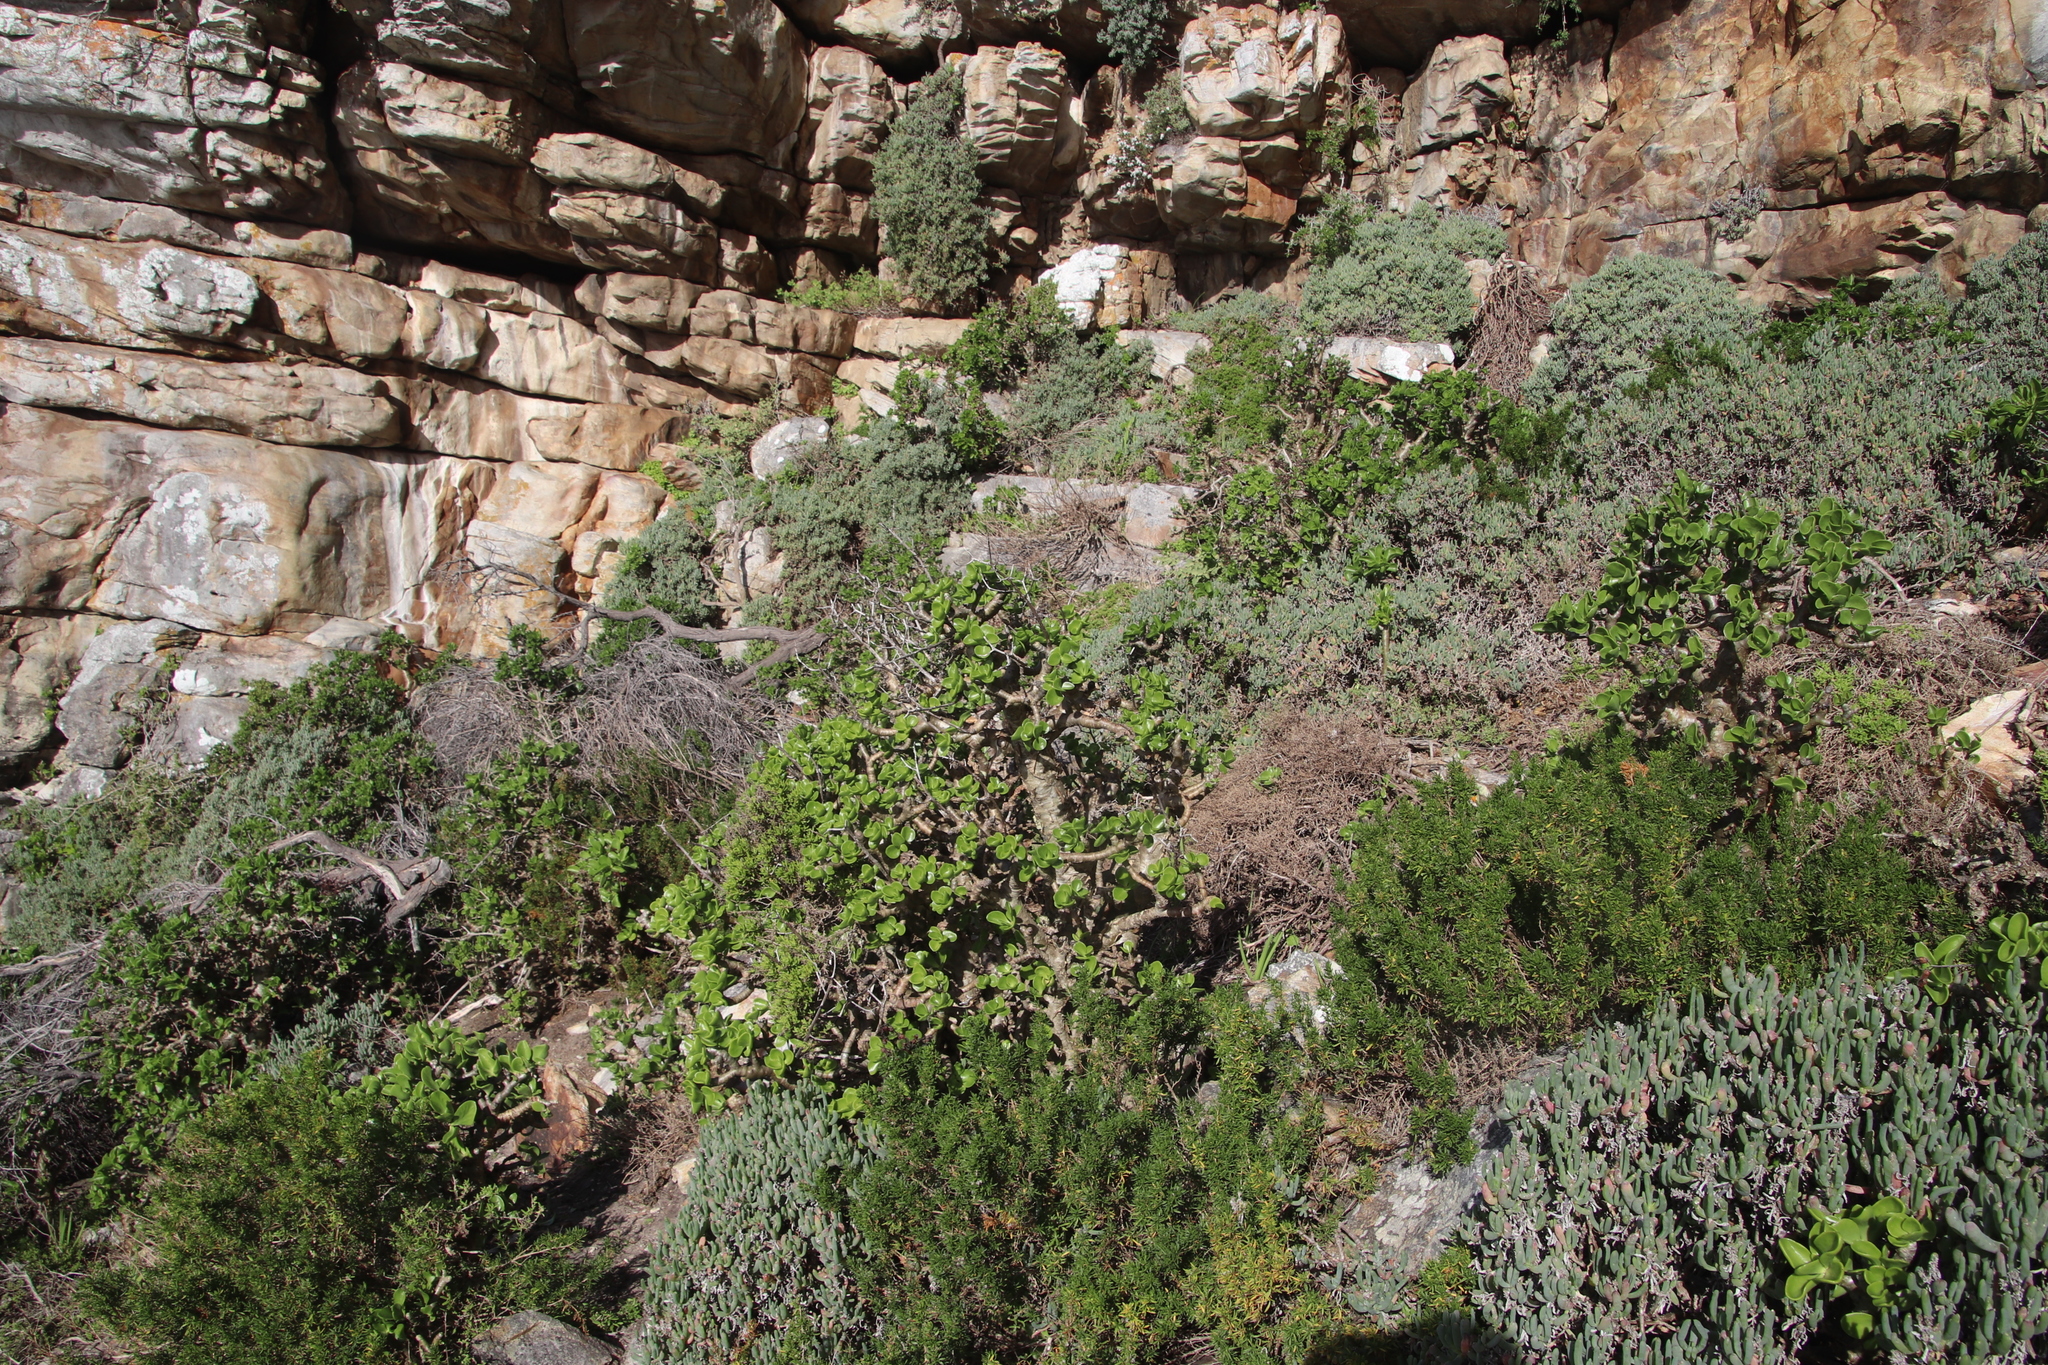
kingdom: Plantae
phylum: Tracheophyta
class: Magnoliopsida
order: Saxifragales
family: Crassulaceae
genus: Tylecodon
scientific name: Tylecodon paniculatus
